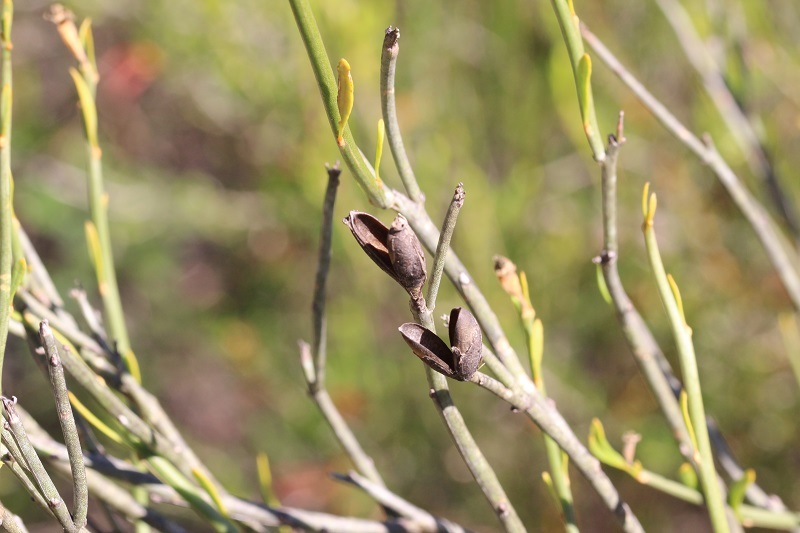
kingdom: Plantae
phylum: Tracheophyta
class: Magnoliopsida
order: Solanales
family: Montiniaceae
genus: Montinia
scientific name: Montinia caryophyllacea
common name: Wild clove-bush
